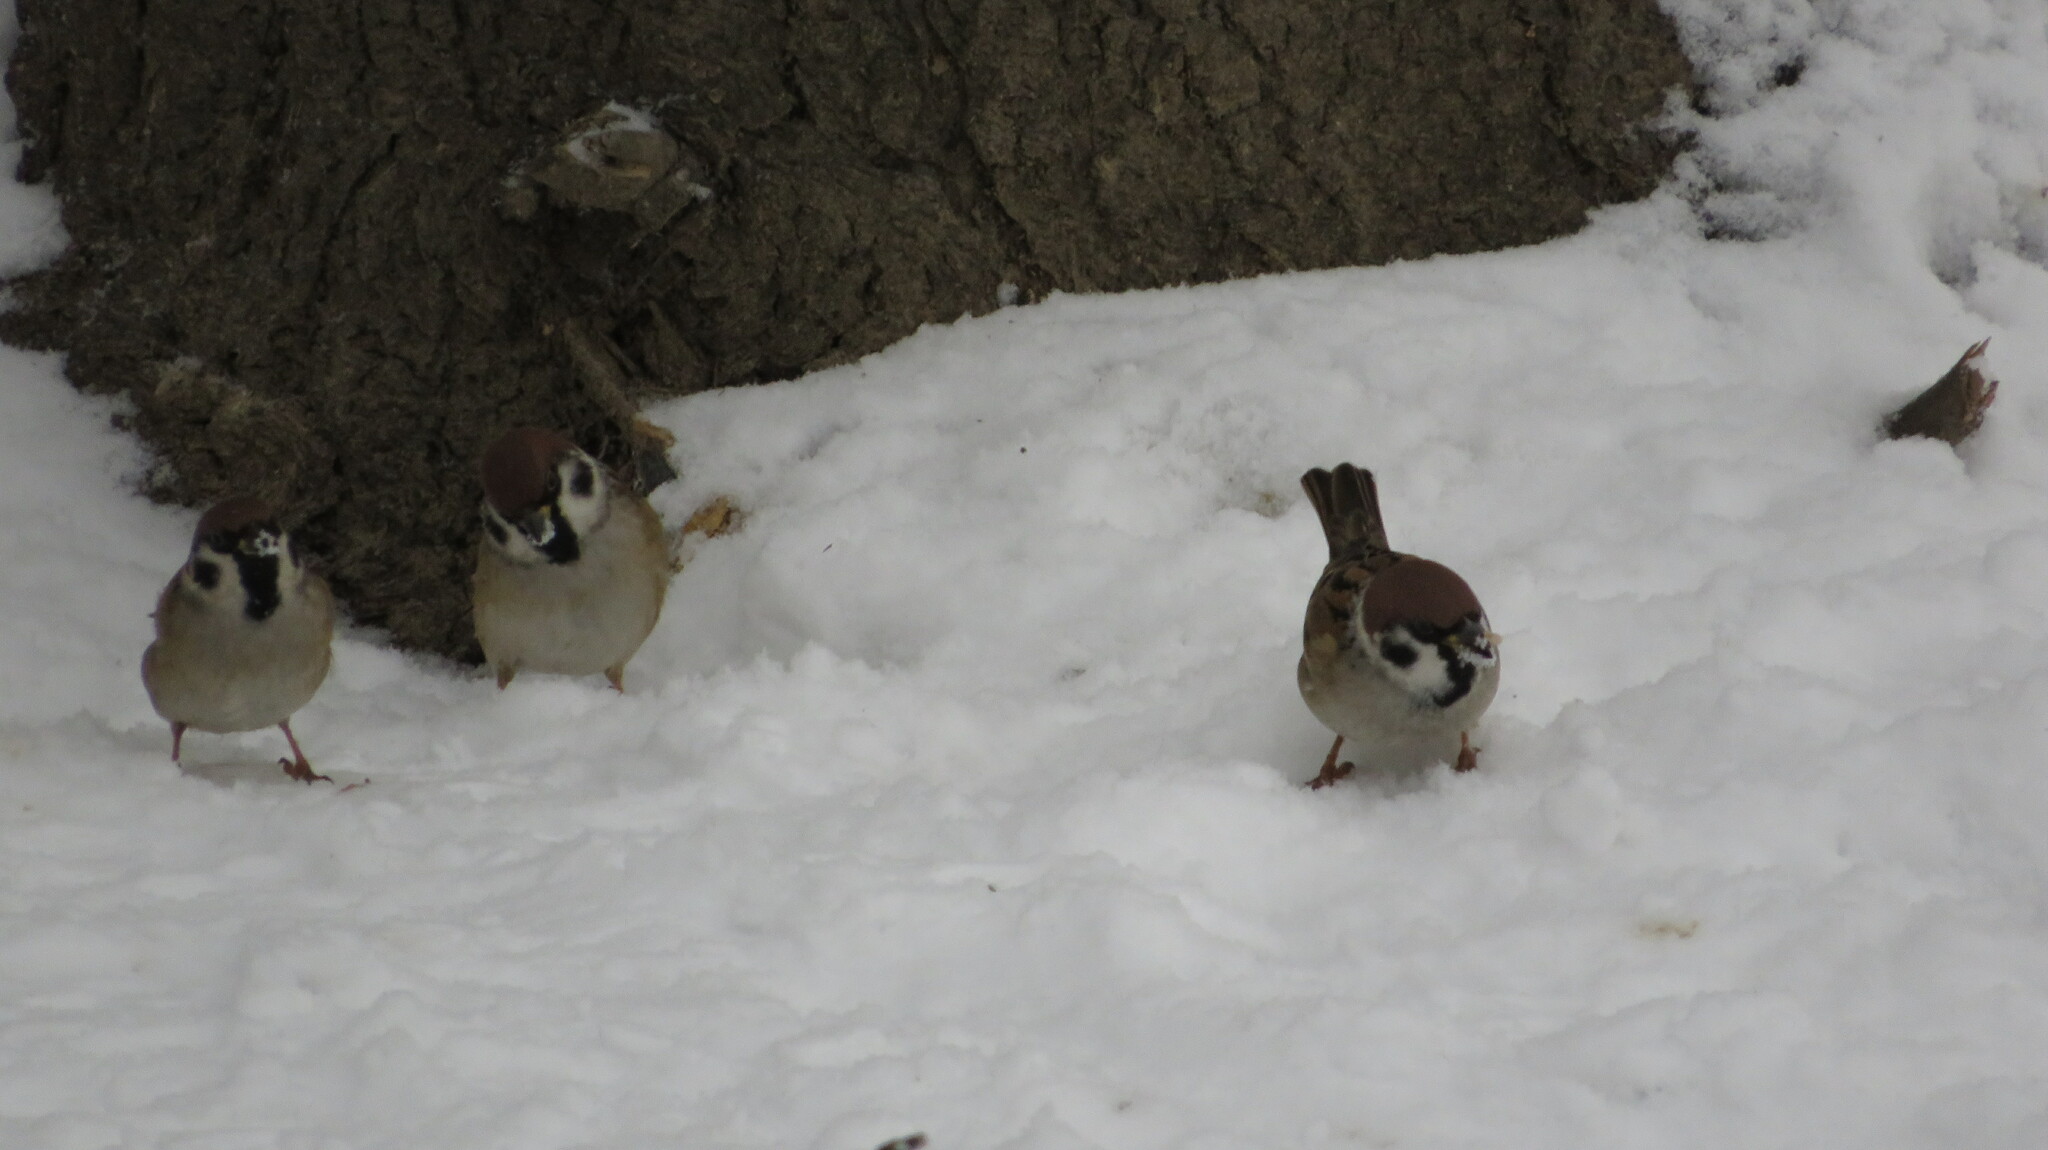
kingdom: Animalia
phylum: Chordata
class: Aves
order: Passeriformes
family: Passeridae
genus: Passer
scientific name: Passer montanus
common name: Eurasian tree sparrow
